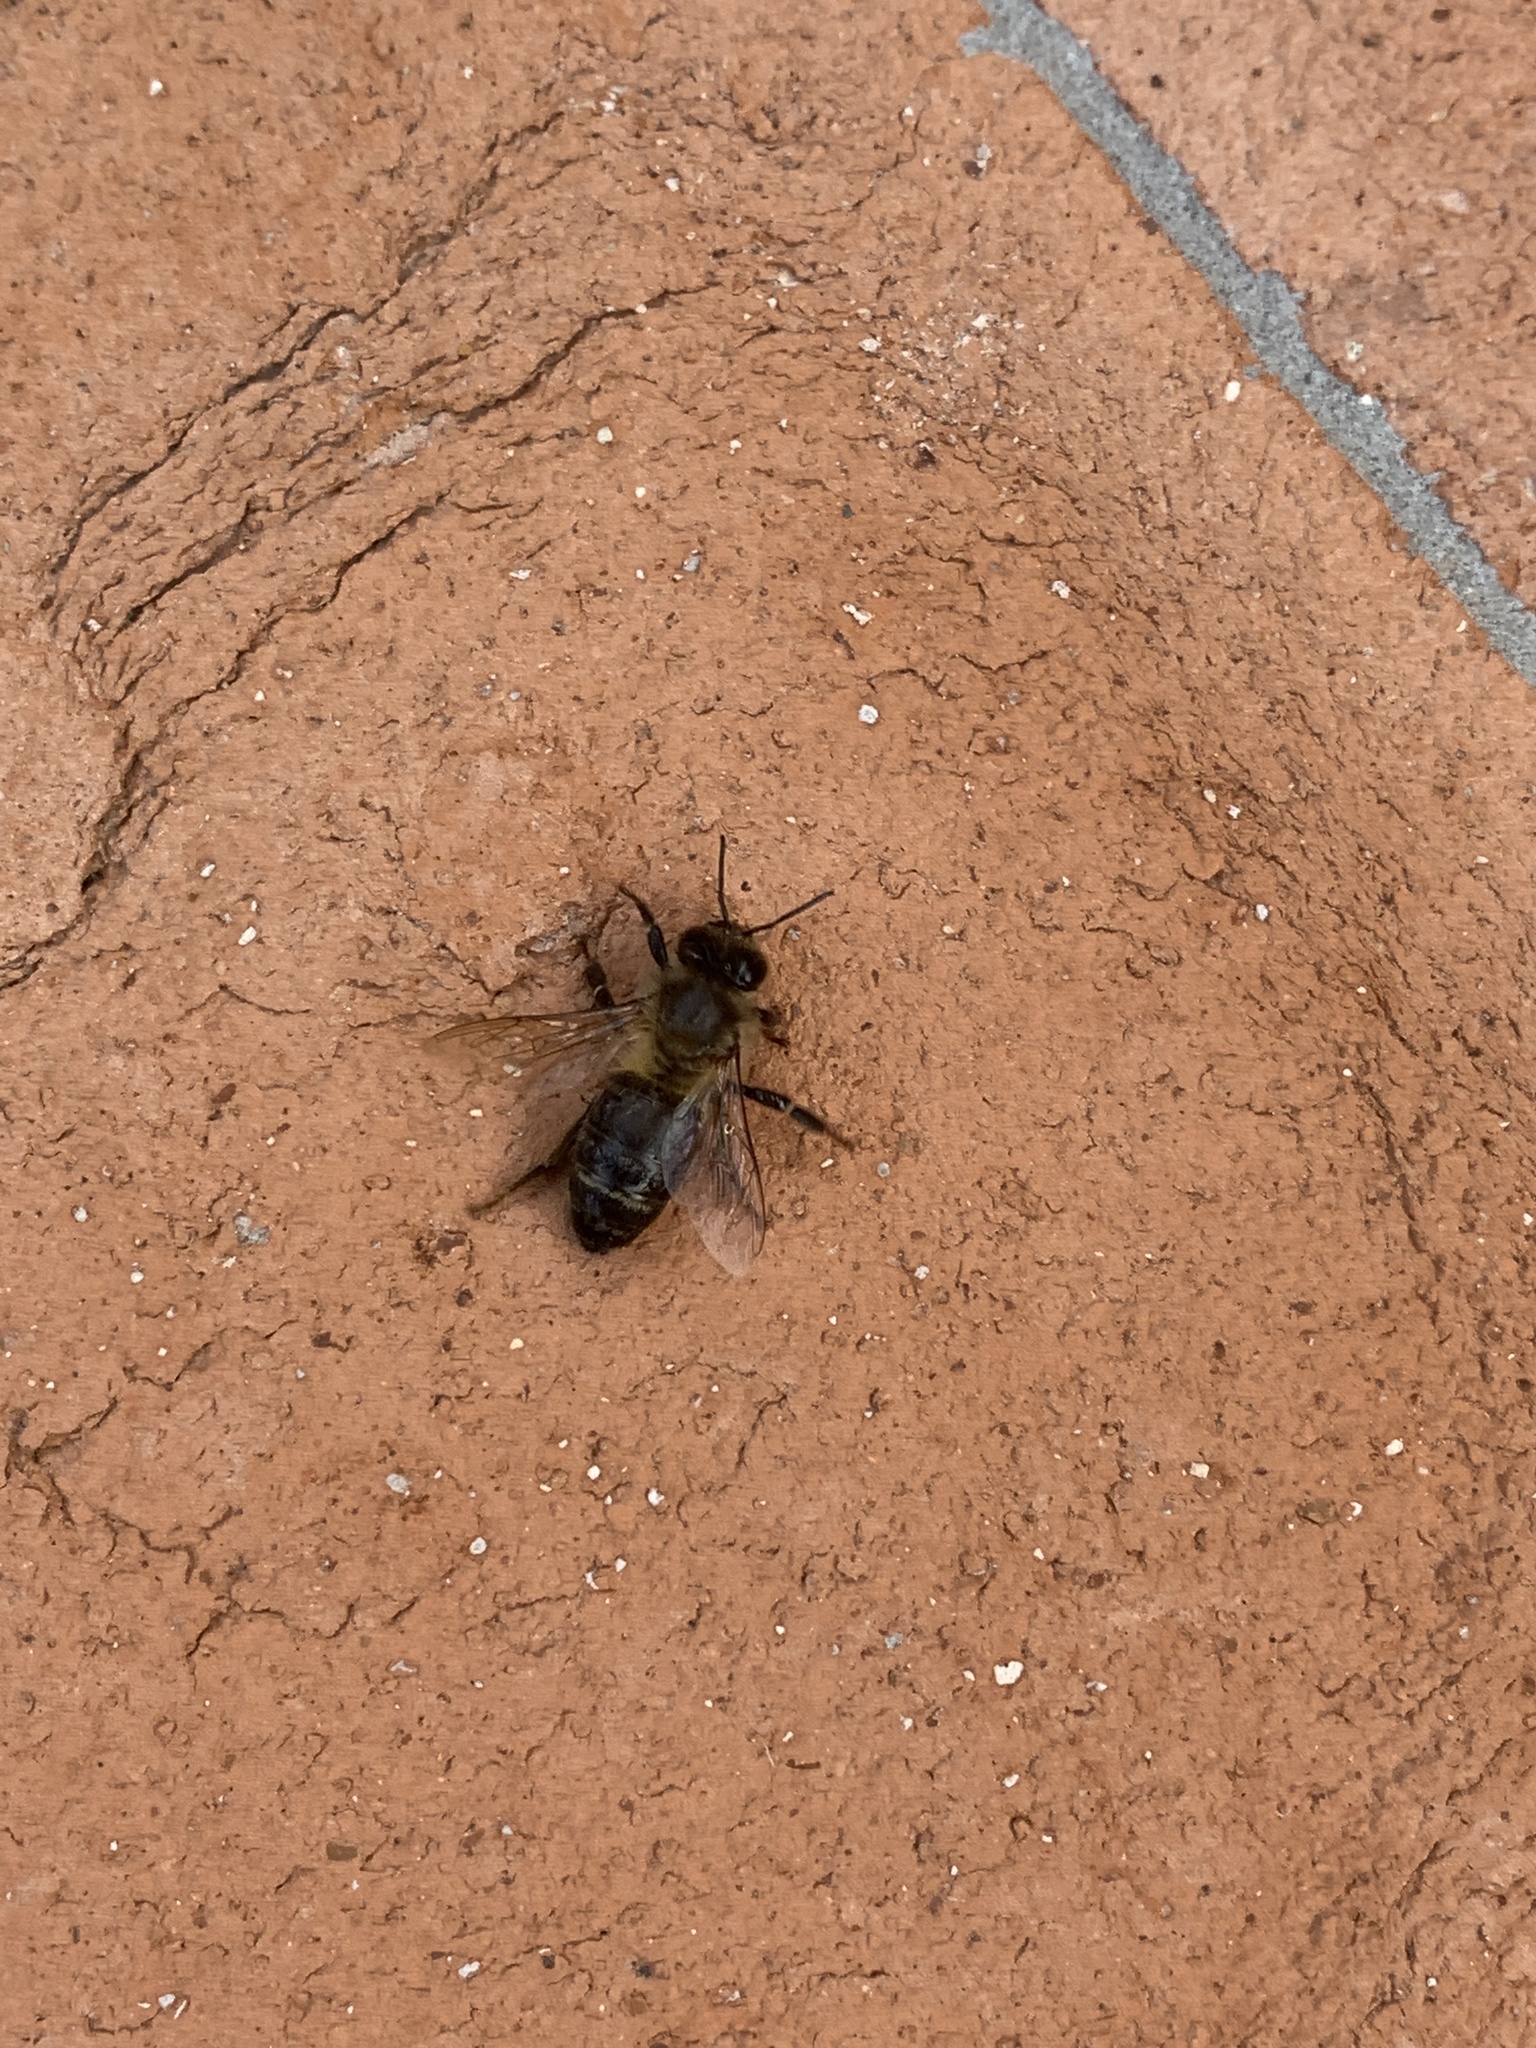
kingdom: Animalia
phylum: Arthropoda
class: Insecta
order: Hymenoptera
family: Apidae
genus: Apis
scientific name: Apis mellifera
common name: Honey bee
